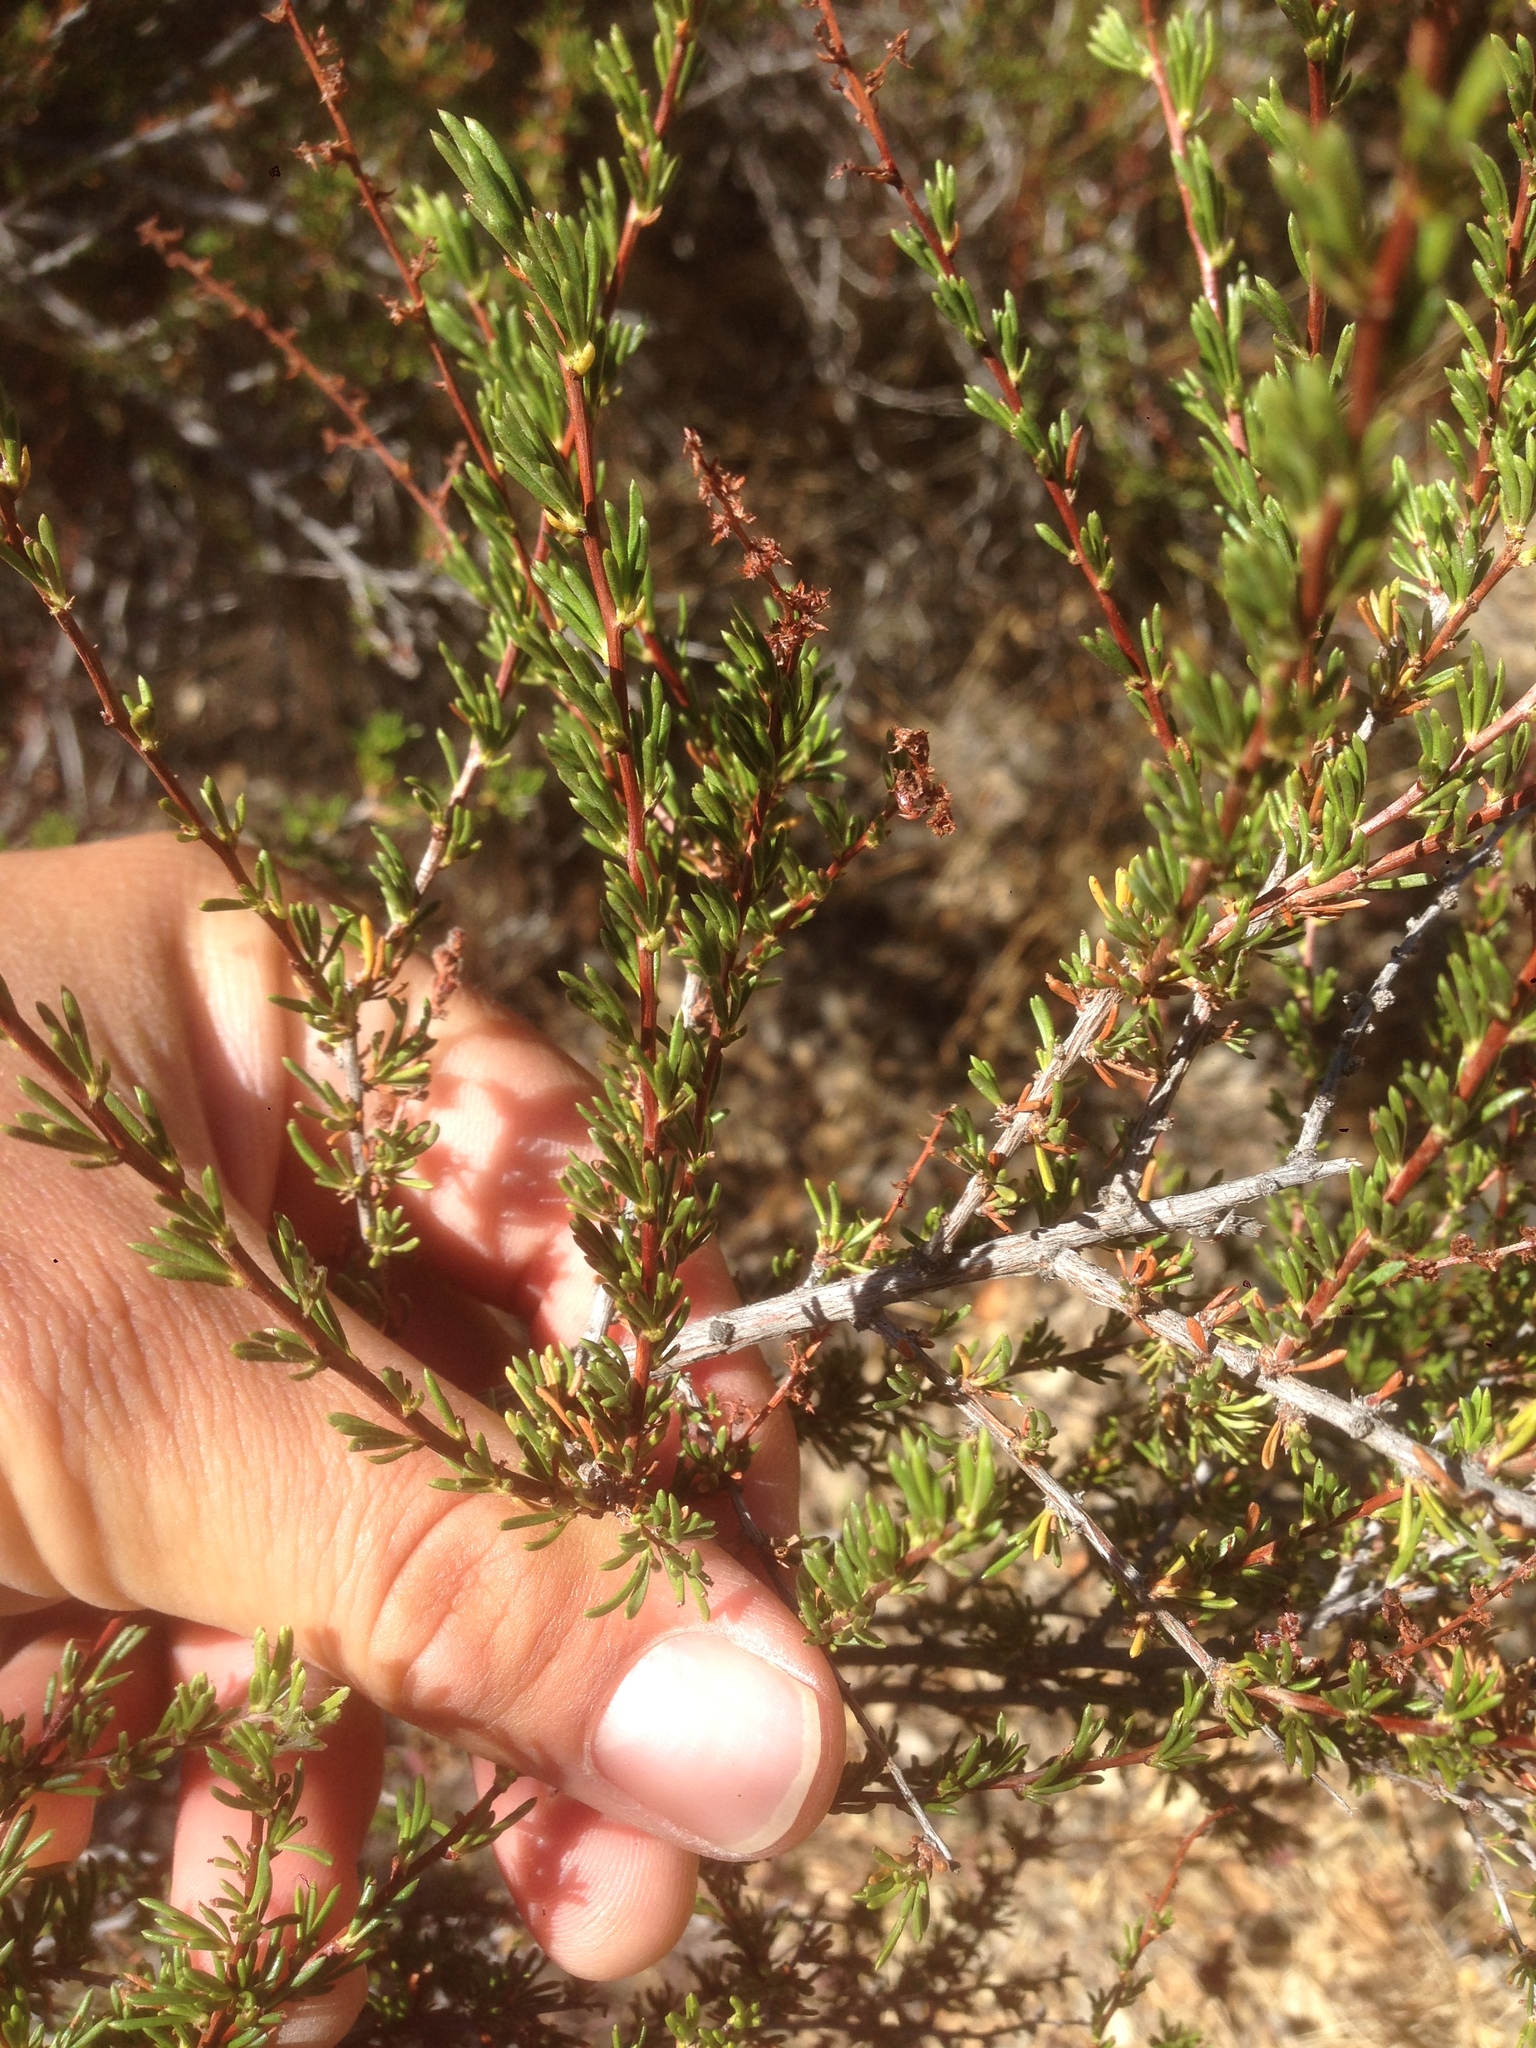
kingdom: Plantae
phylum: Tracheophyta
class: Magnoliopsida
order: Rosales
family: Rosaceae
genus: Adenostoma
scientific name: Adenostoma fasciculatum
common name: Chamise
